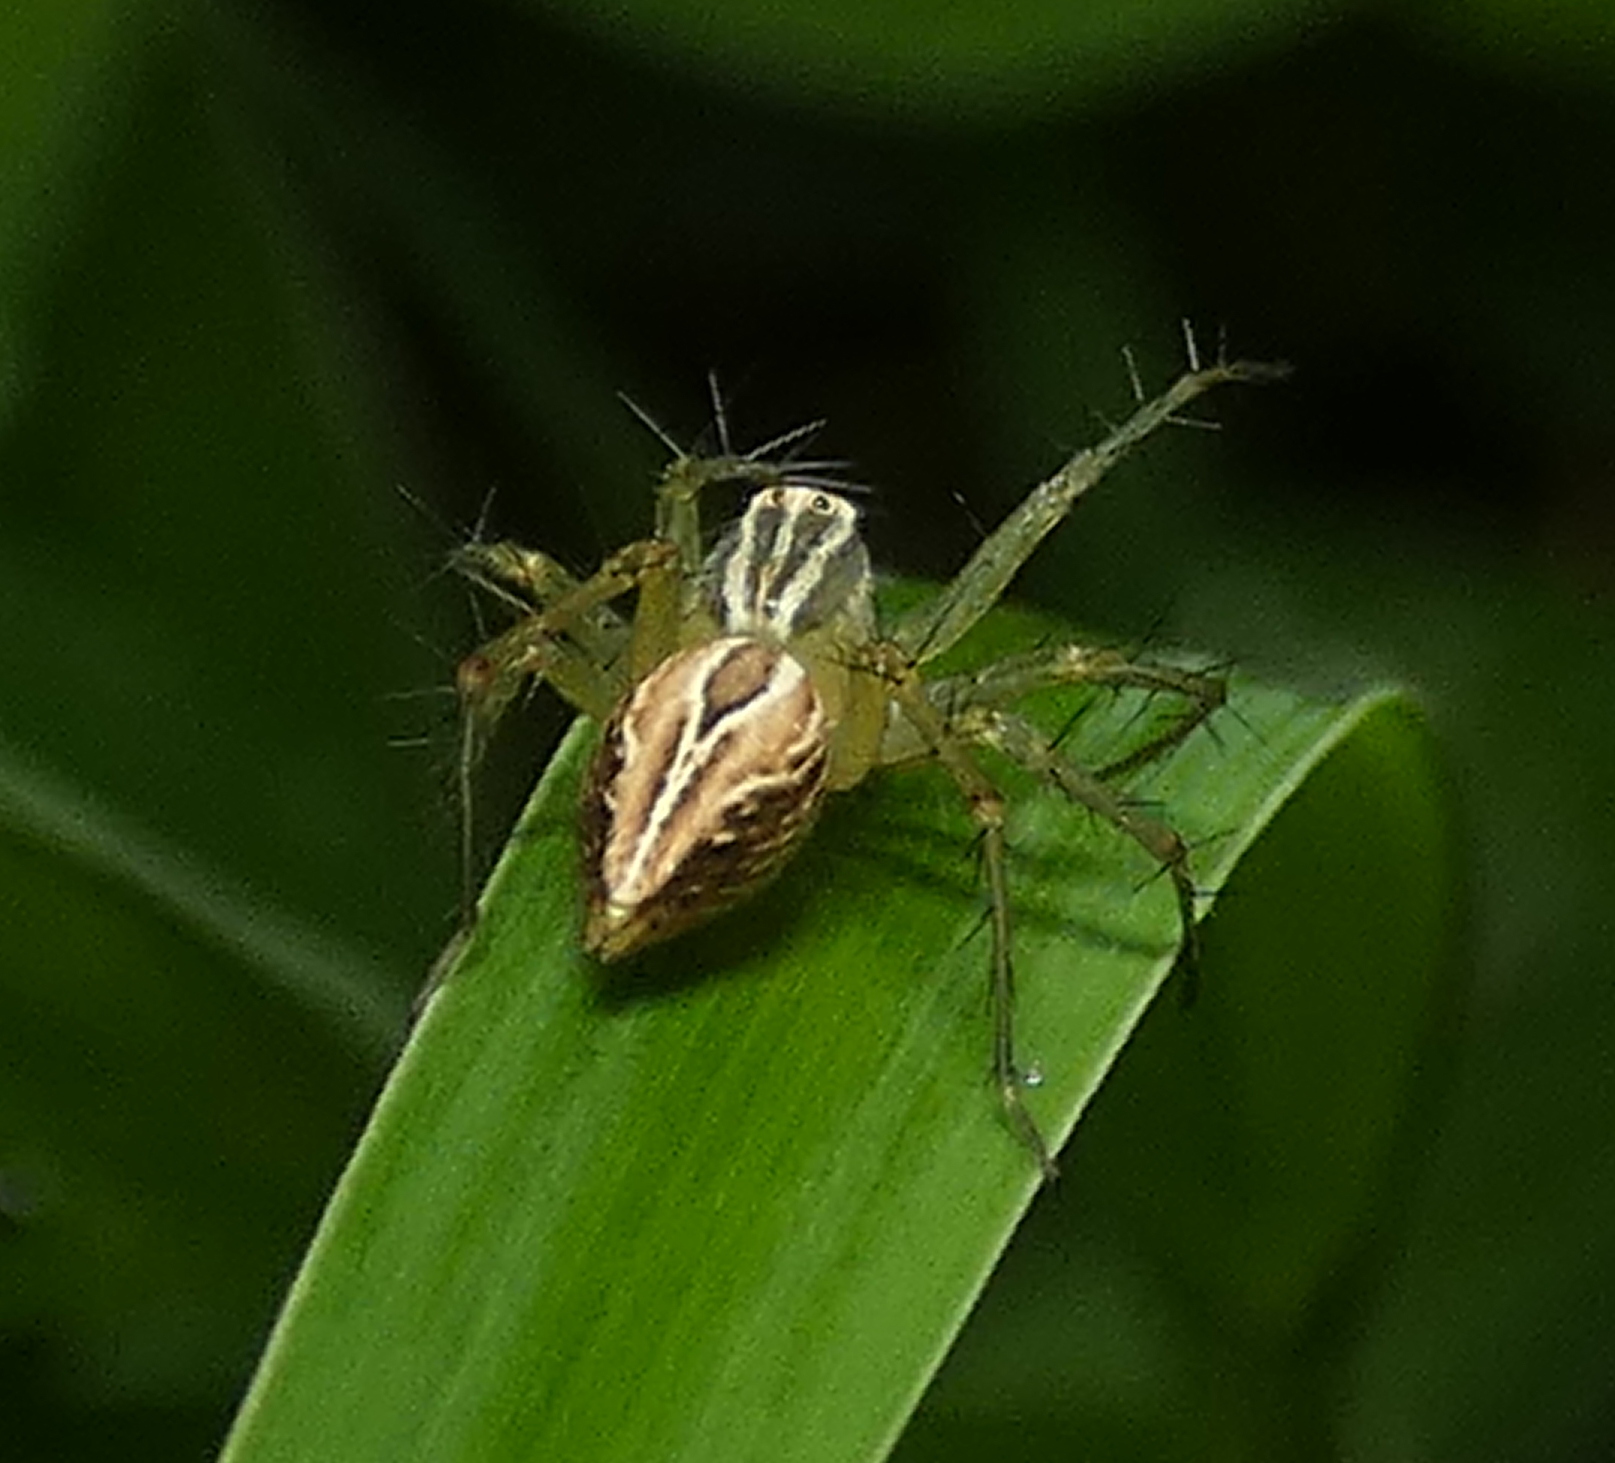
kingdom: Animalia
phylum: Arthropoda
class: Arachnida
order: Araneae
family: Oxyopidae
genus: Oxyopes
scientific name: Oxyopes salticus
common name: Lynx spiders
